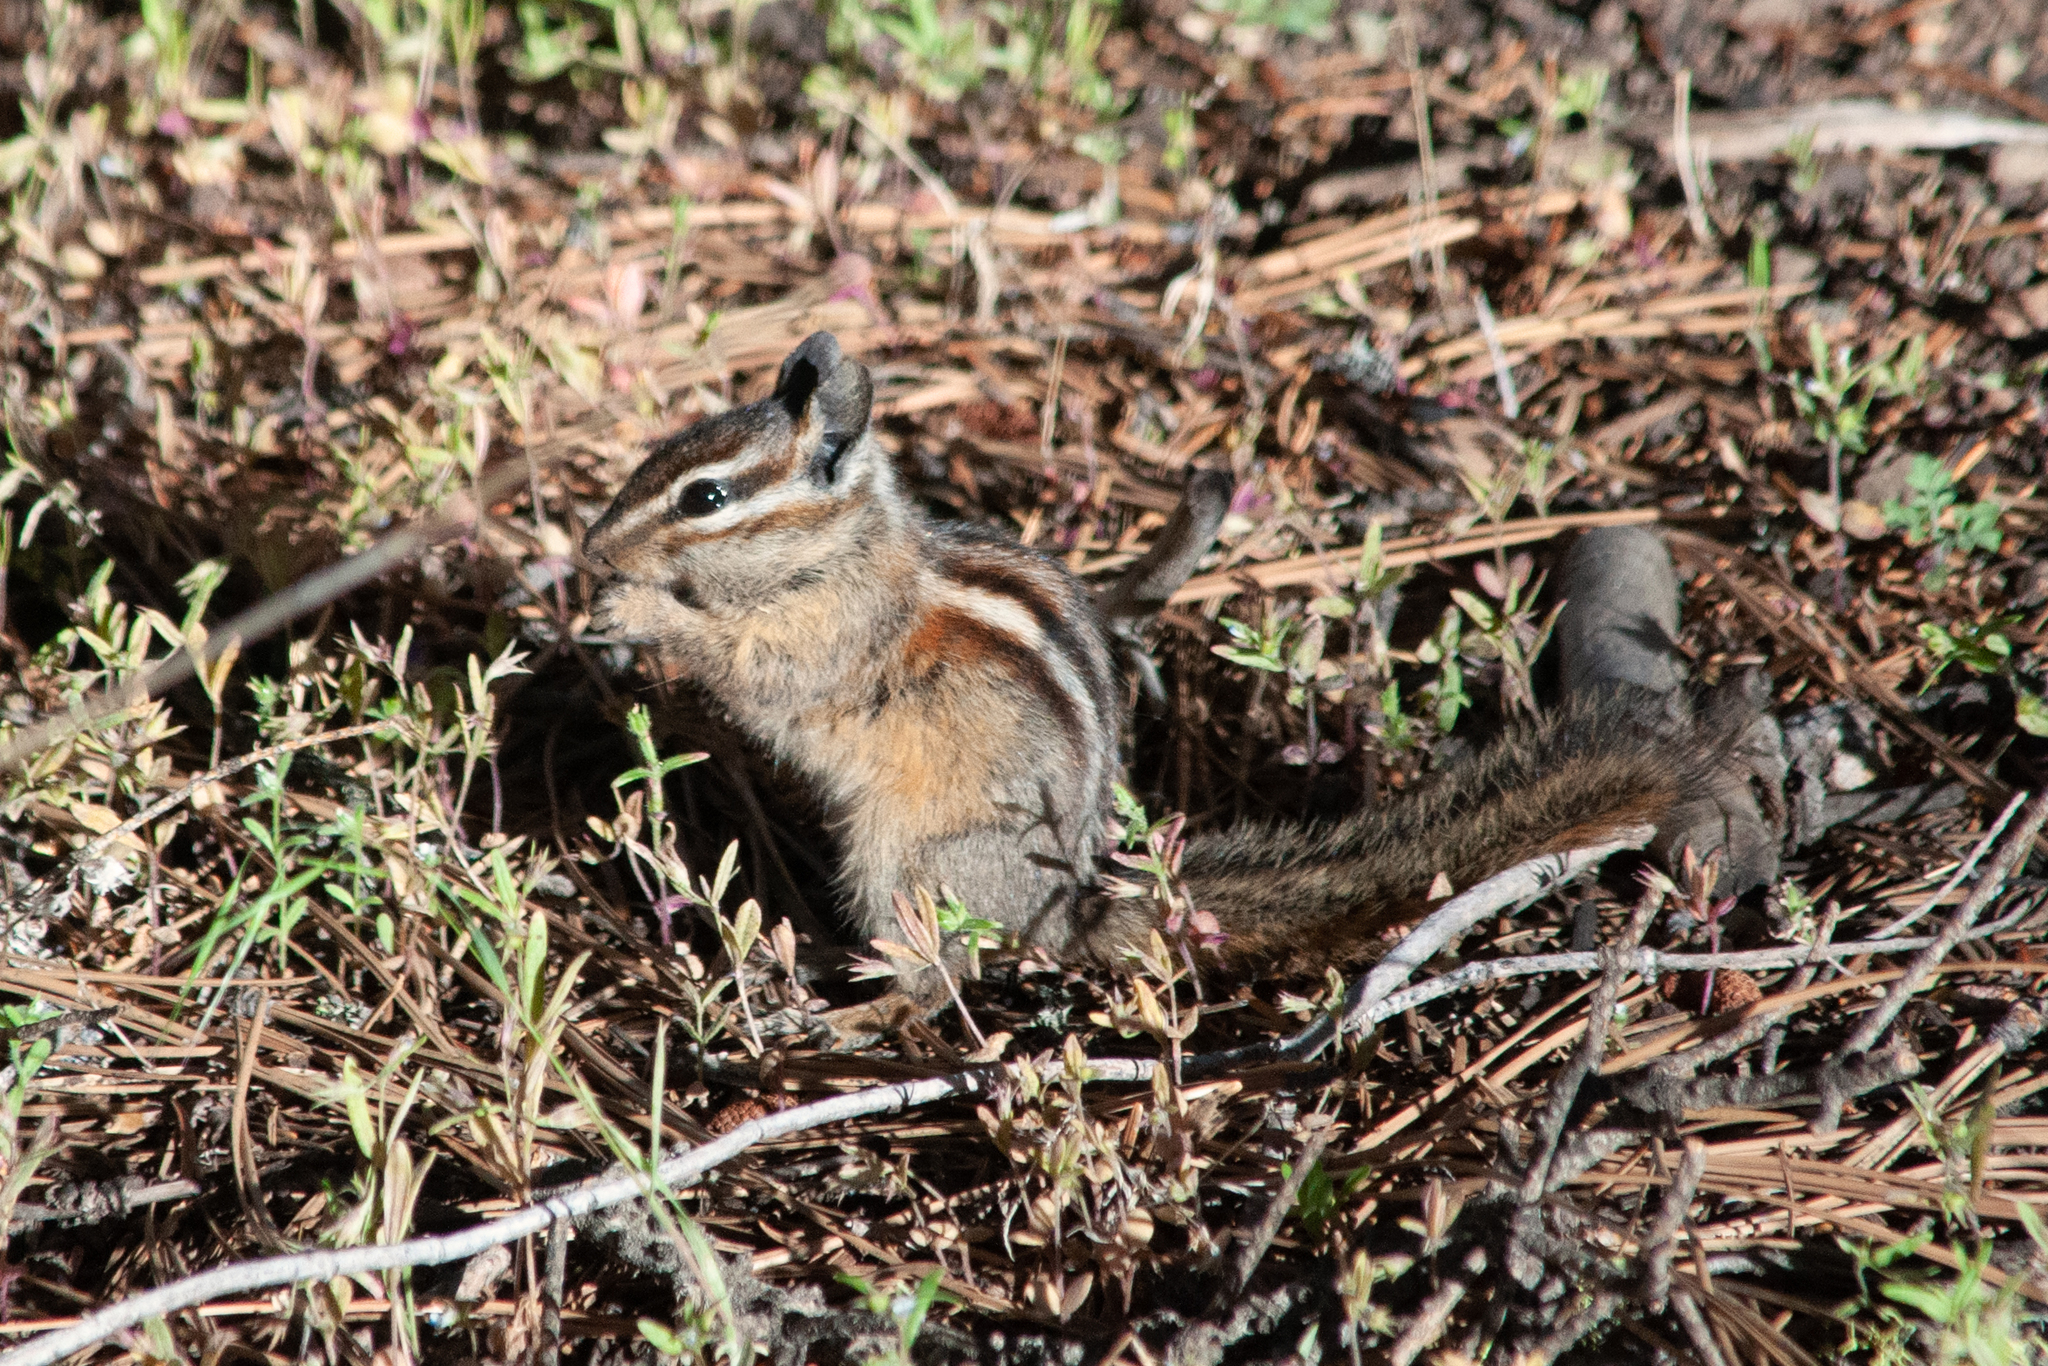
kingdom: Animalia
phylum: Chordata
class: Mammalia
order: Rodentia
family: Sciuridae
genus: Tamias
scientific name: Tamias amoenus
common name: Yellow-pine chipmunk
